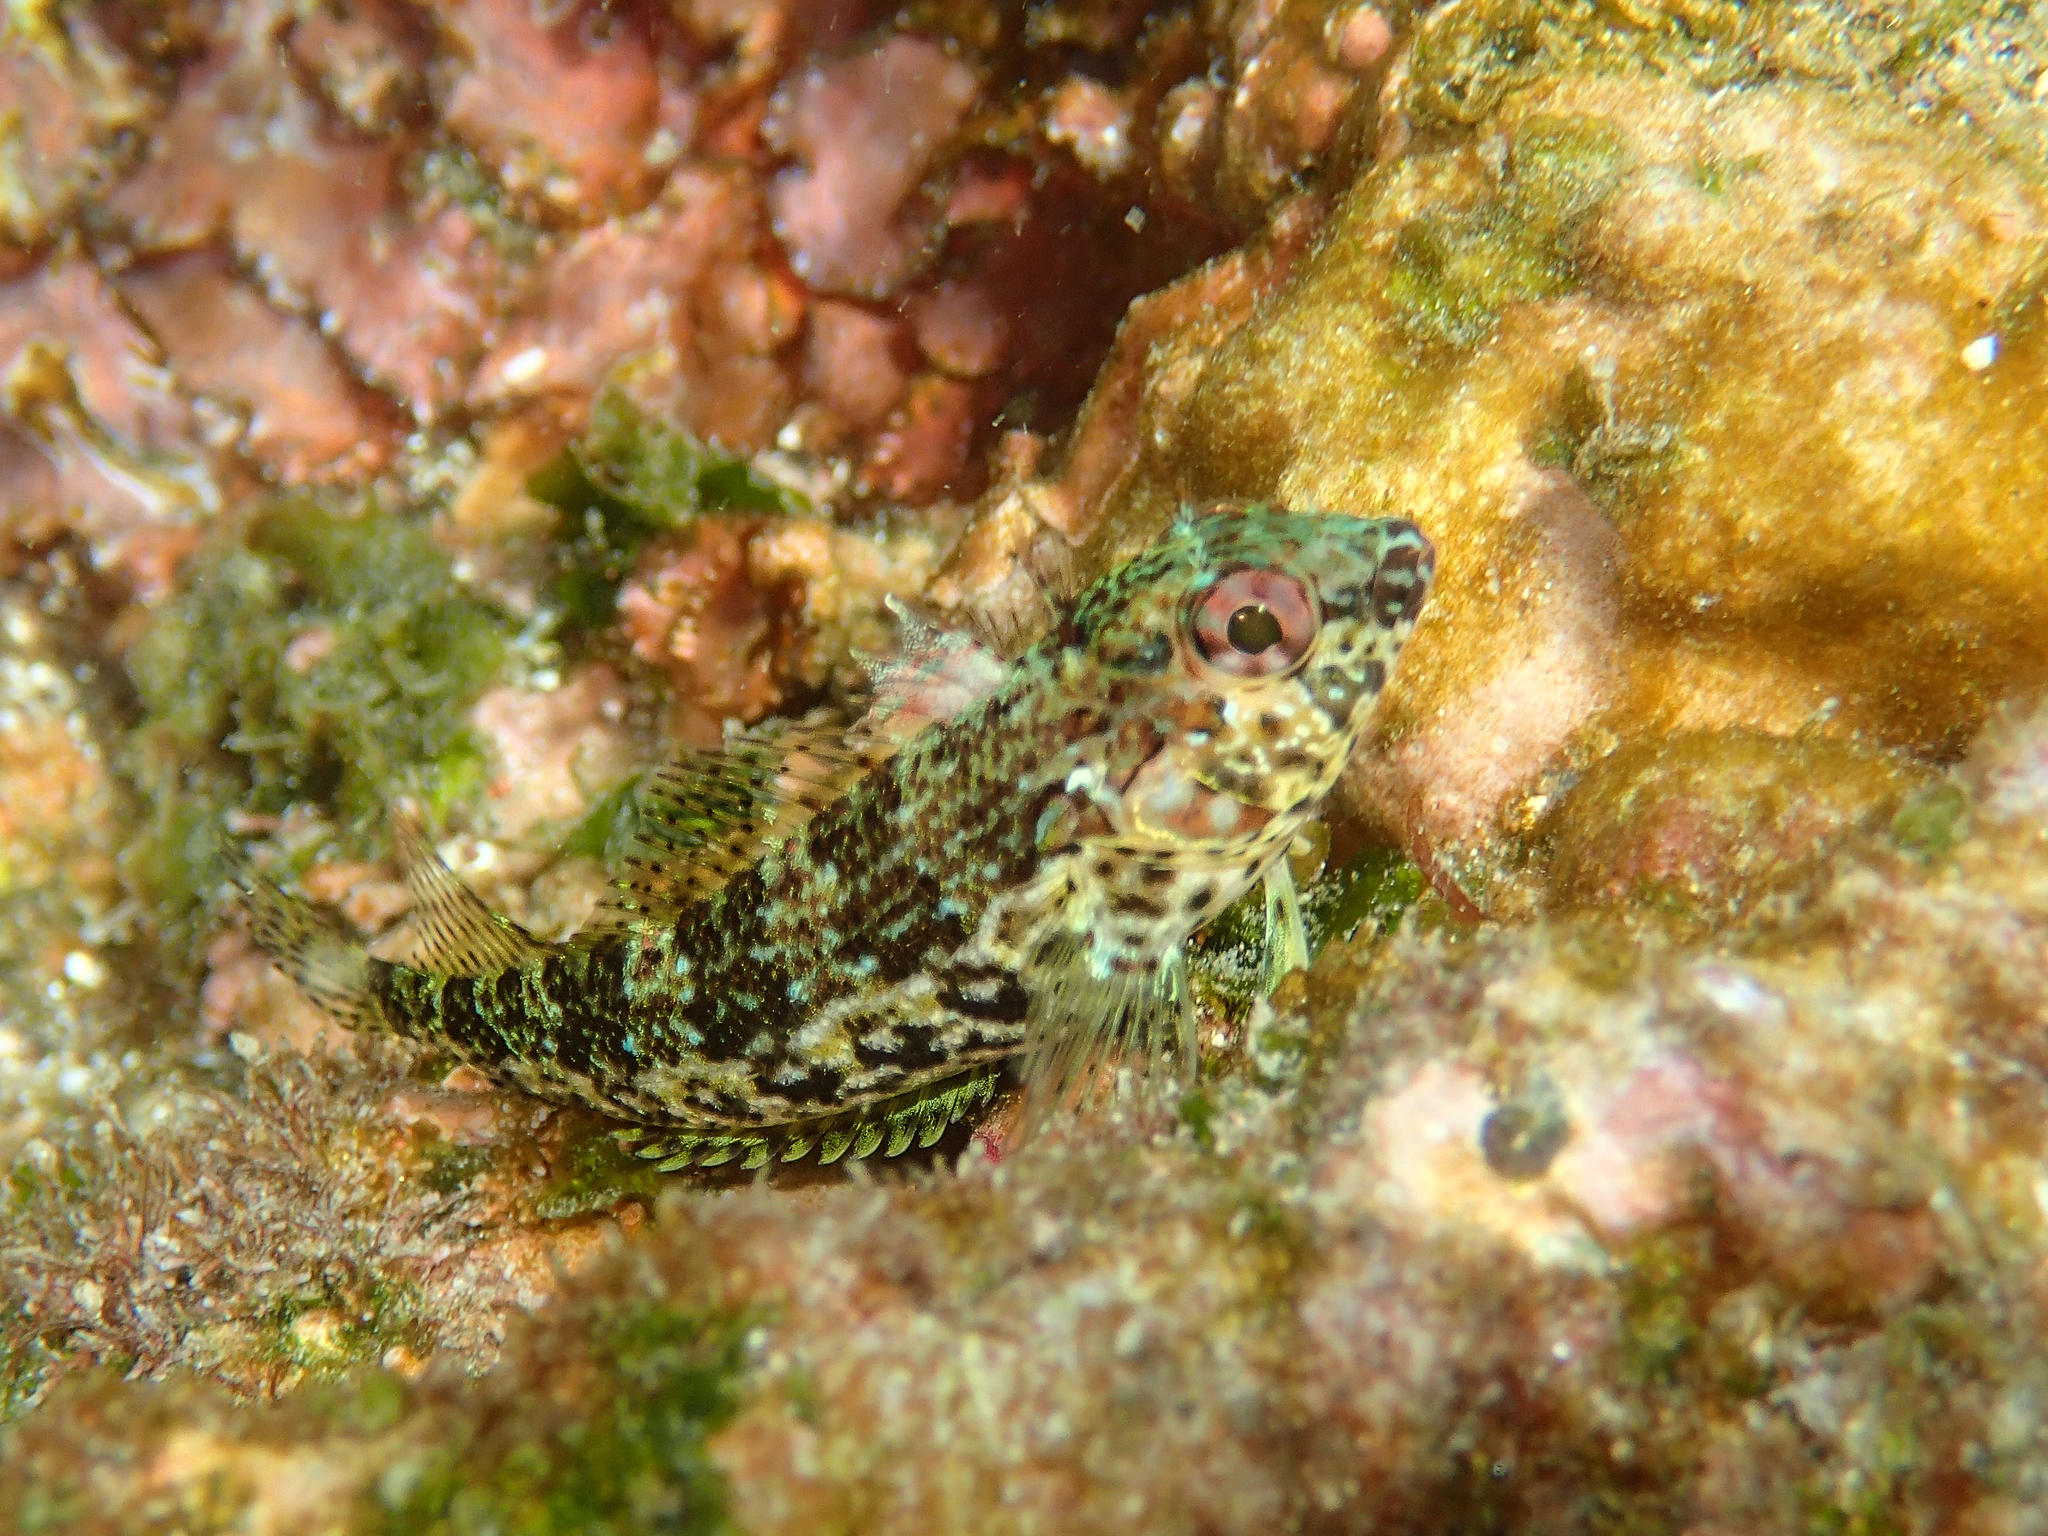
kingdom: Animalia
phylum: Chordata
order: Perciformes
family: Labrisomidae
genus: Malacoctenus
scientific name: Malacoctenus tetranemus
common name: Chameleon clinid
